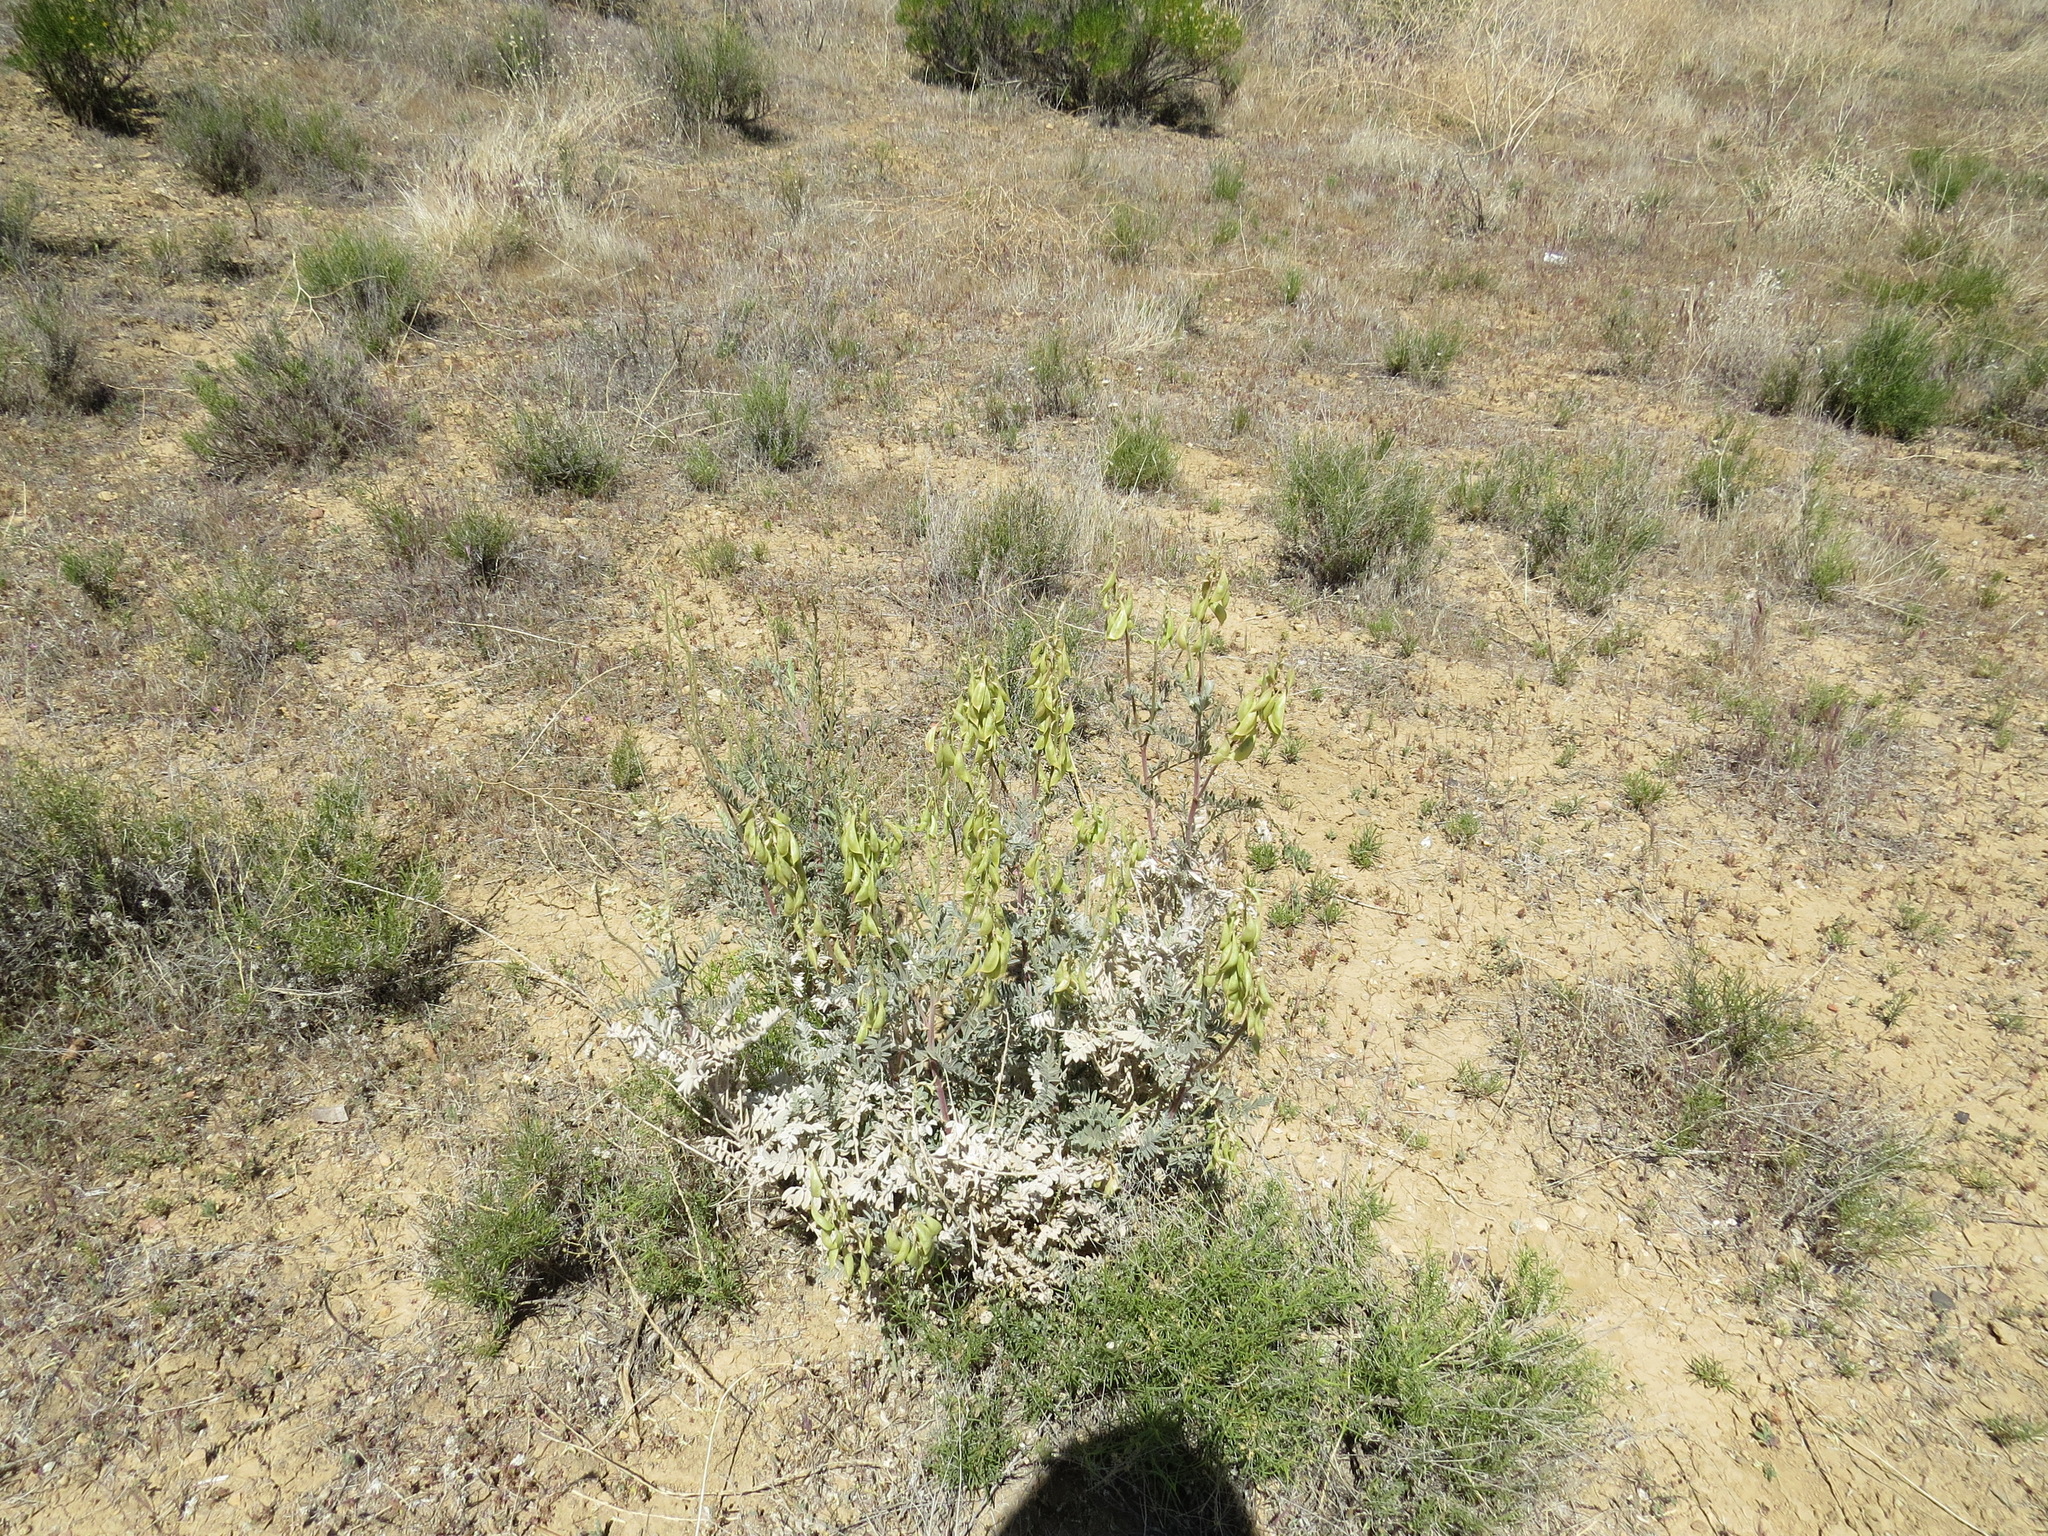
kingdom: Plantae
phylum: Tracheophyta
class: Magnoliopsida
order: Fabales
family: Fabaceae
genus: Astragalus
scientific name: Astragalus oxyphysus
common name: Stanislaus milk-vetch
